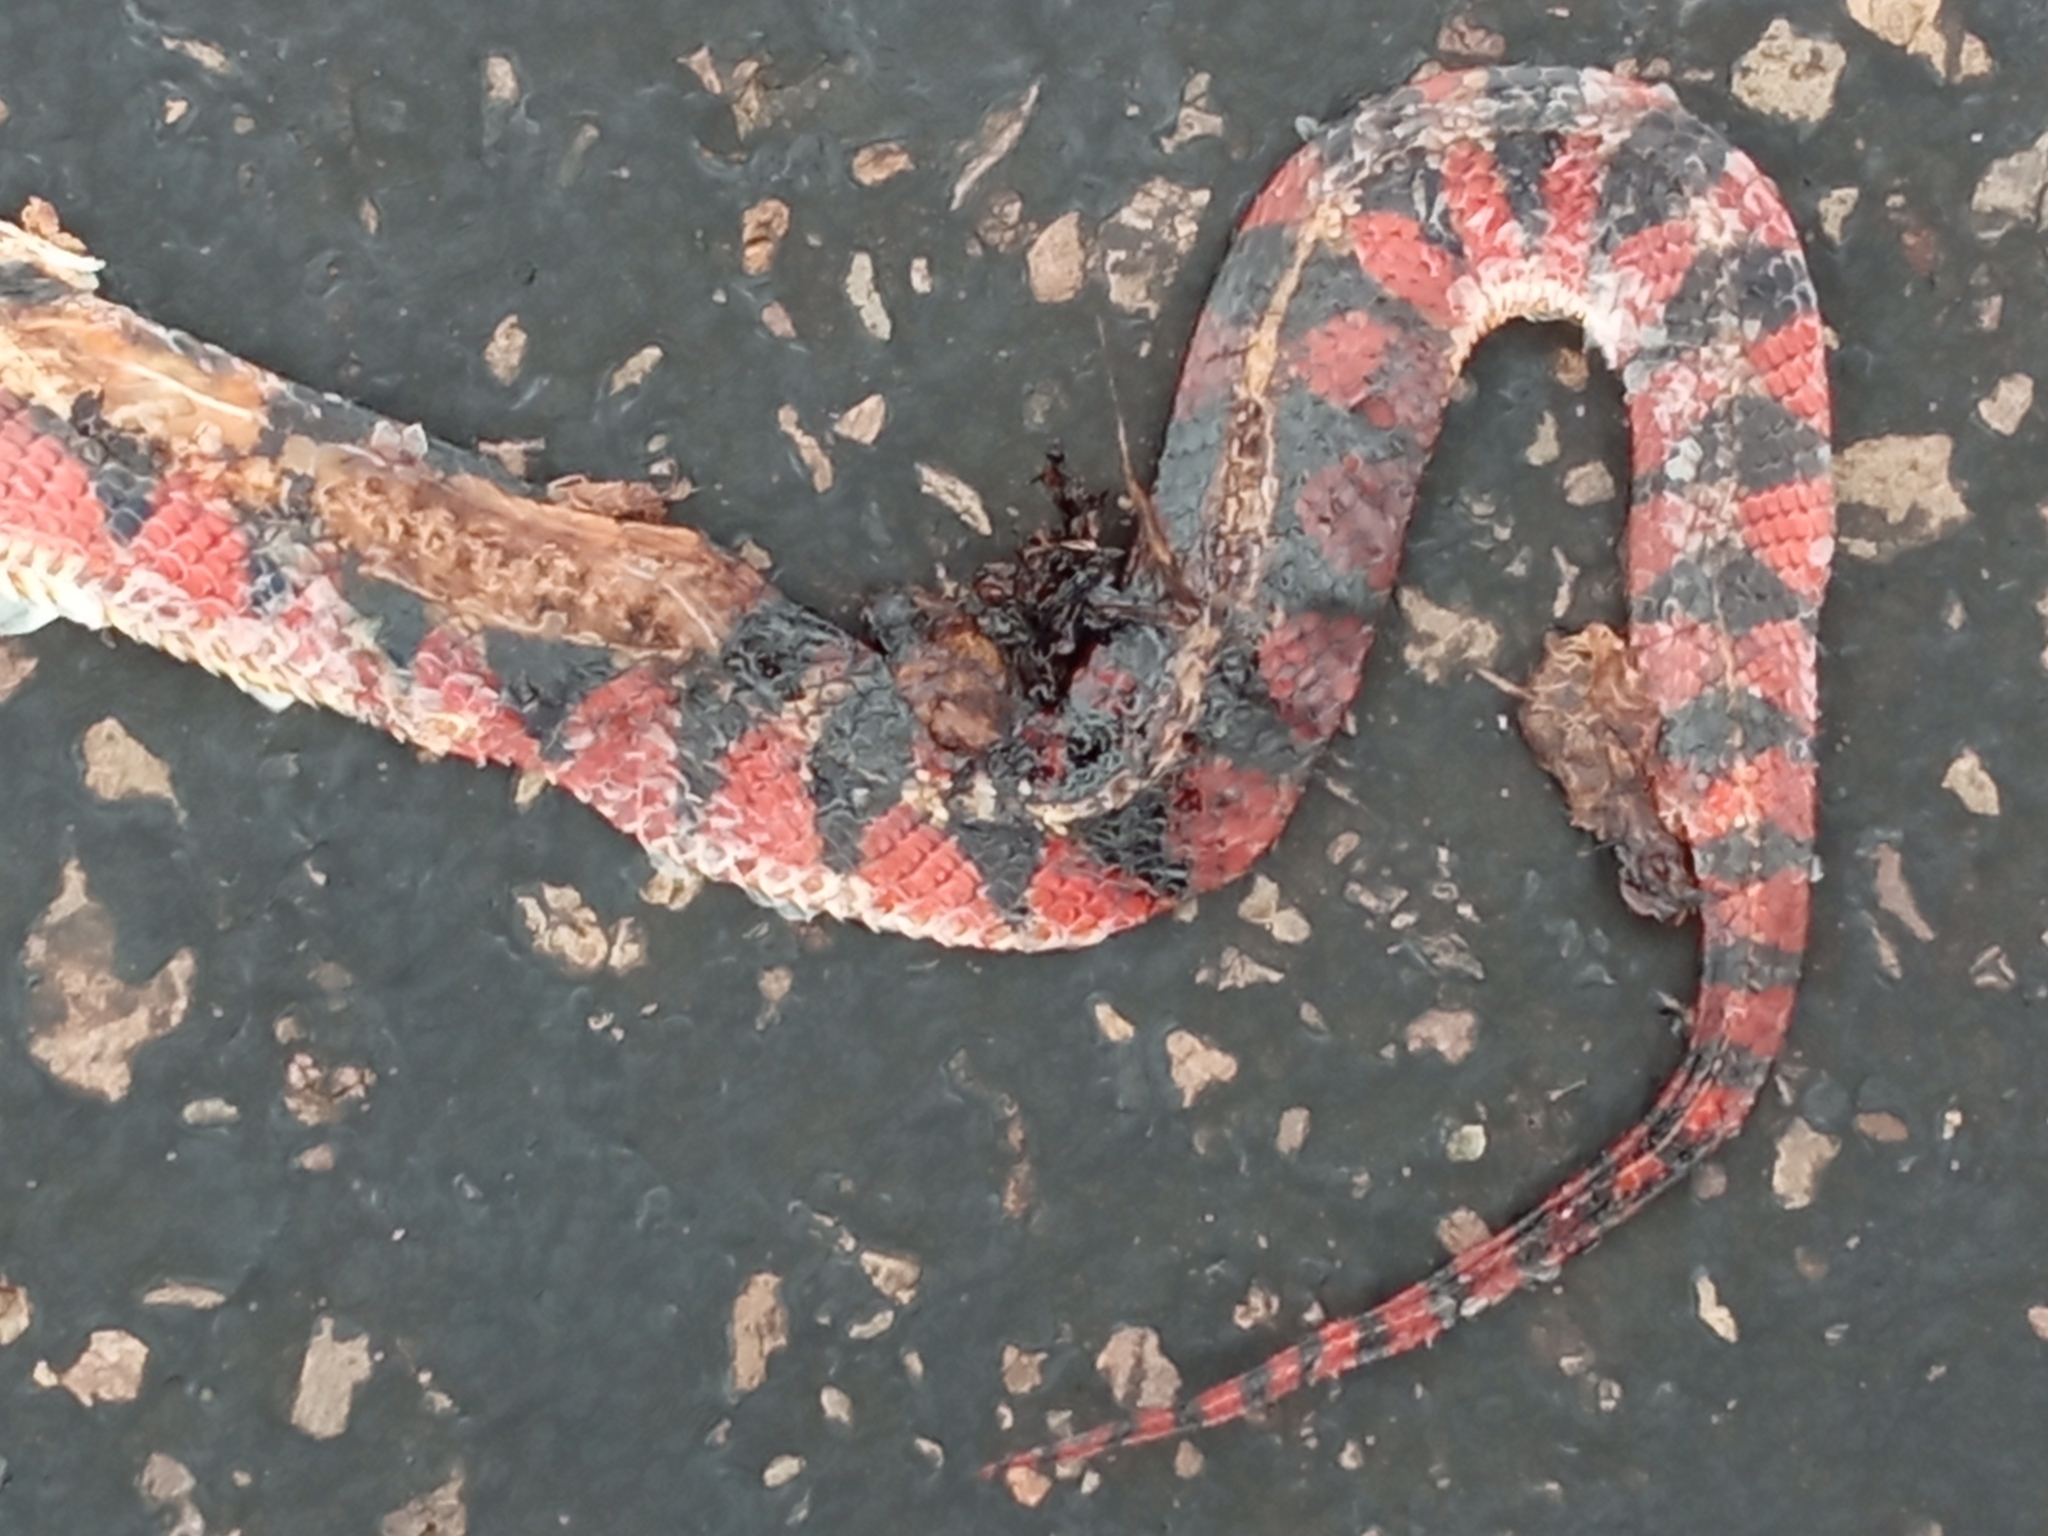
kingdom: Animalia
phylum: Chordata
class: Squamata
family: Colubridae
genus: Oxyrhopus
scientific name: Oxyrhopus rhombifer
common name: Amazon false coral snake
